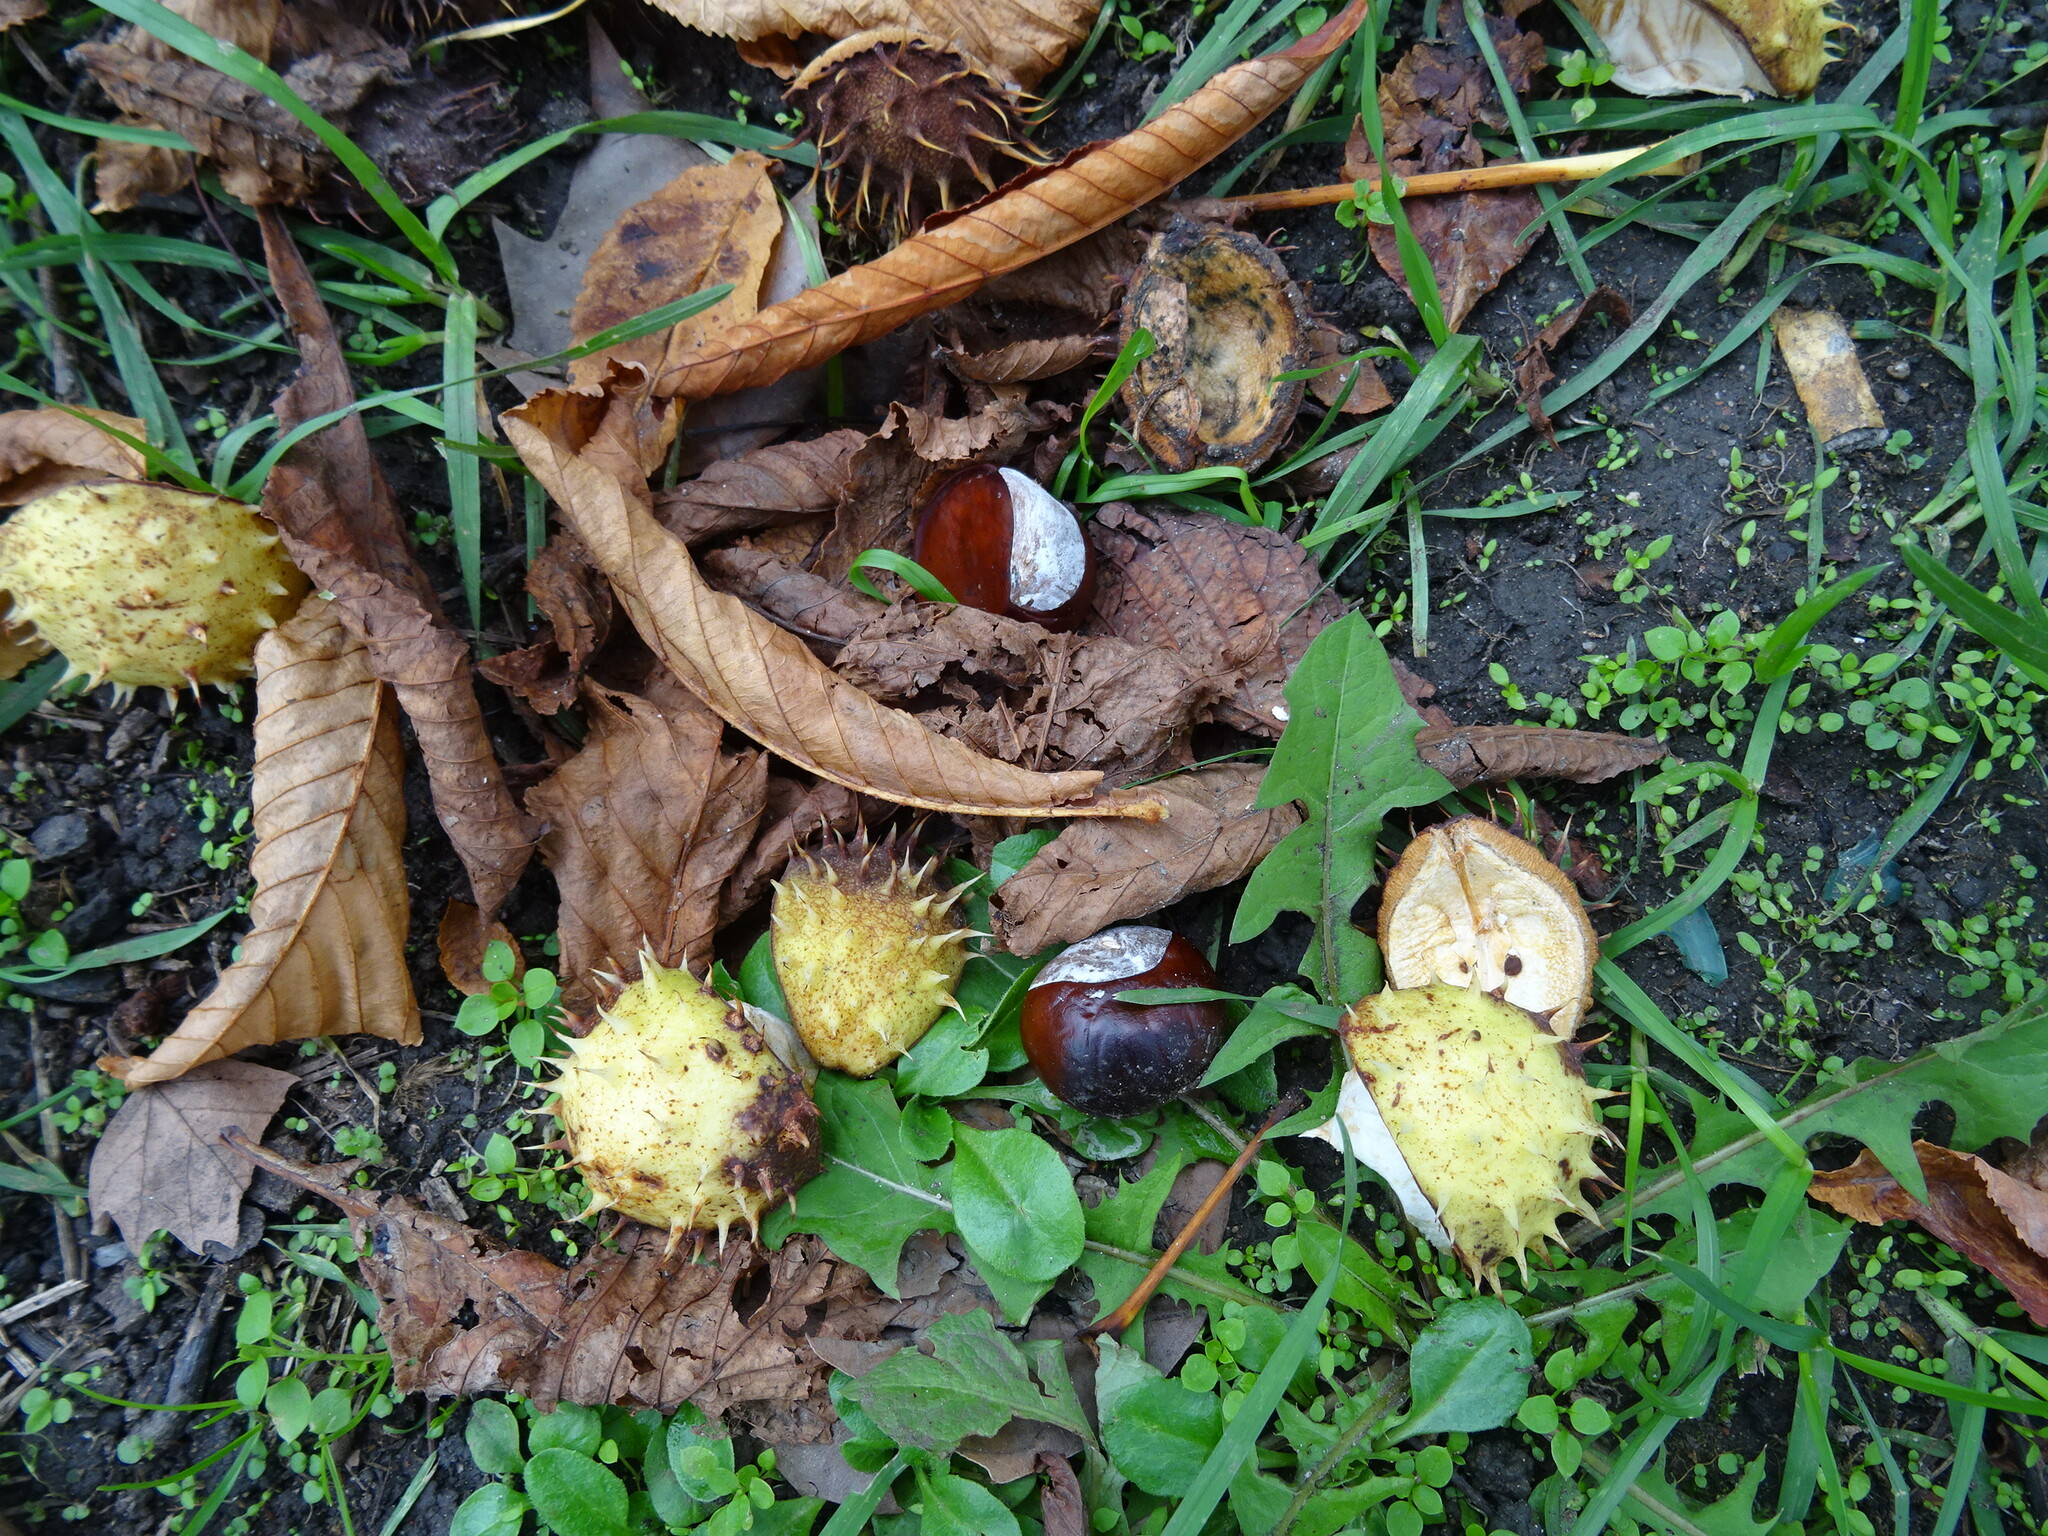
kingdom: Plantae
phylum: Tracheophyta
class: Magnoliopsida
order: Sapindales
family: Sapindaceae
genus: Aesculus
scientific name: Aesculus hippocastanum
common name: Horse-chestnut
